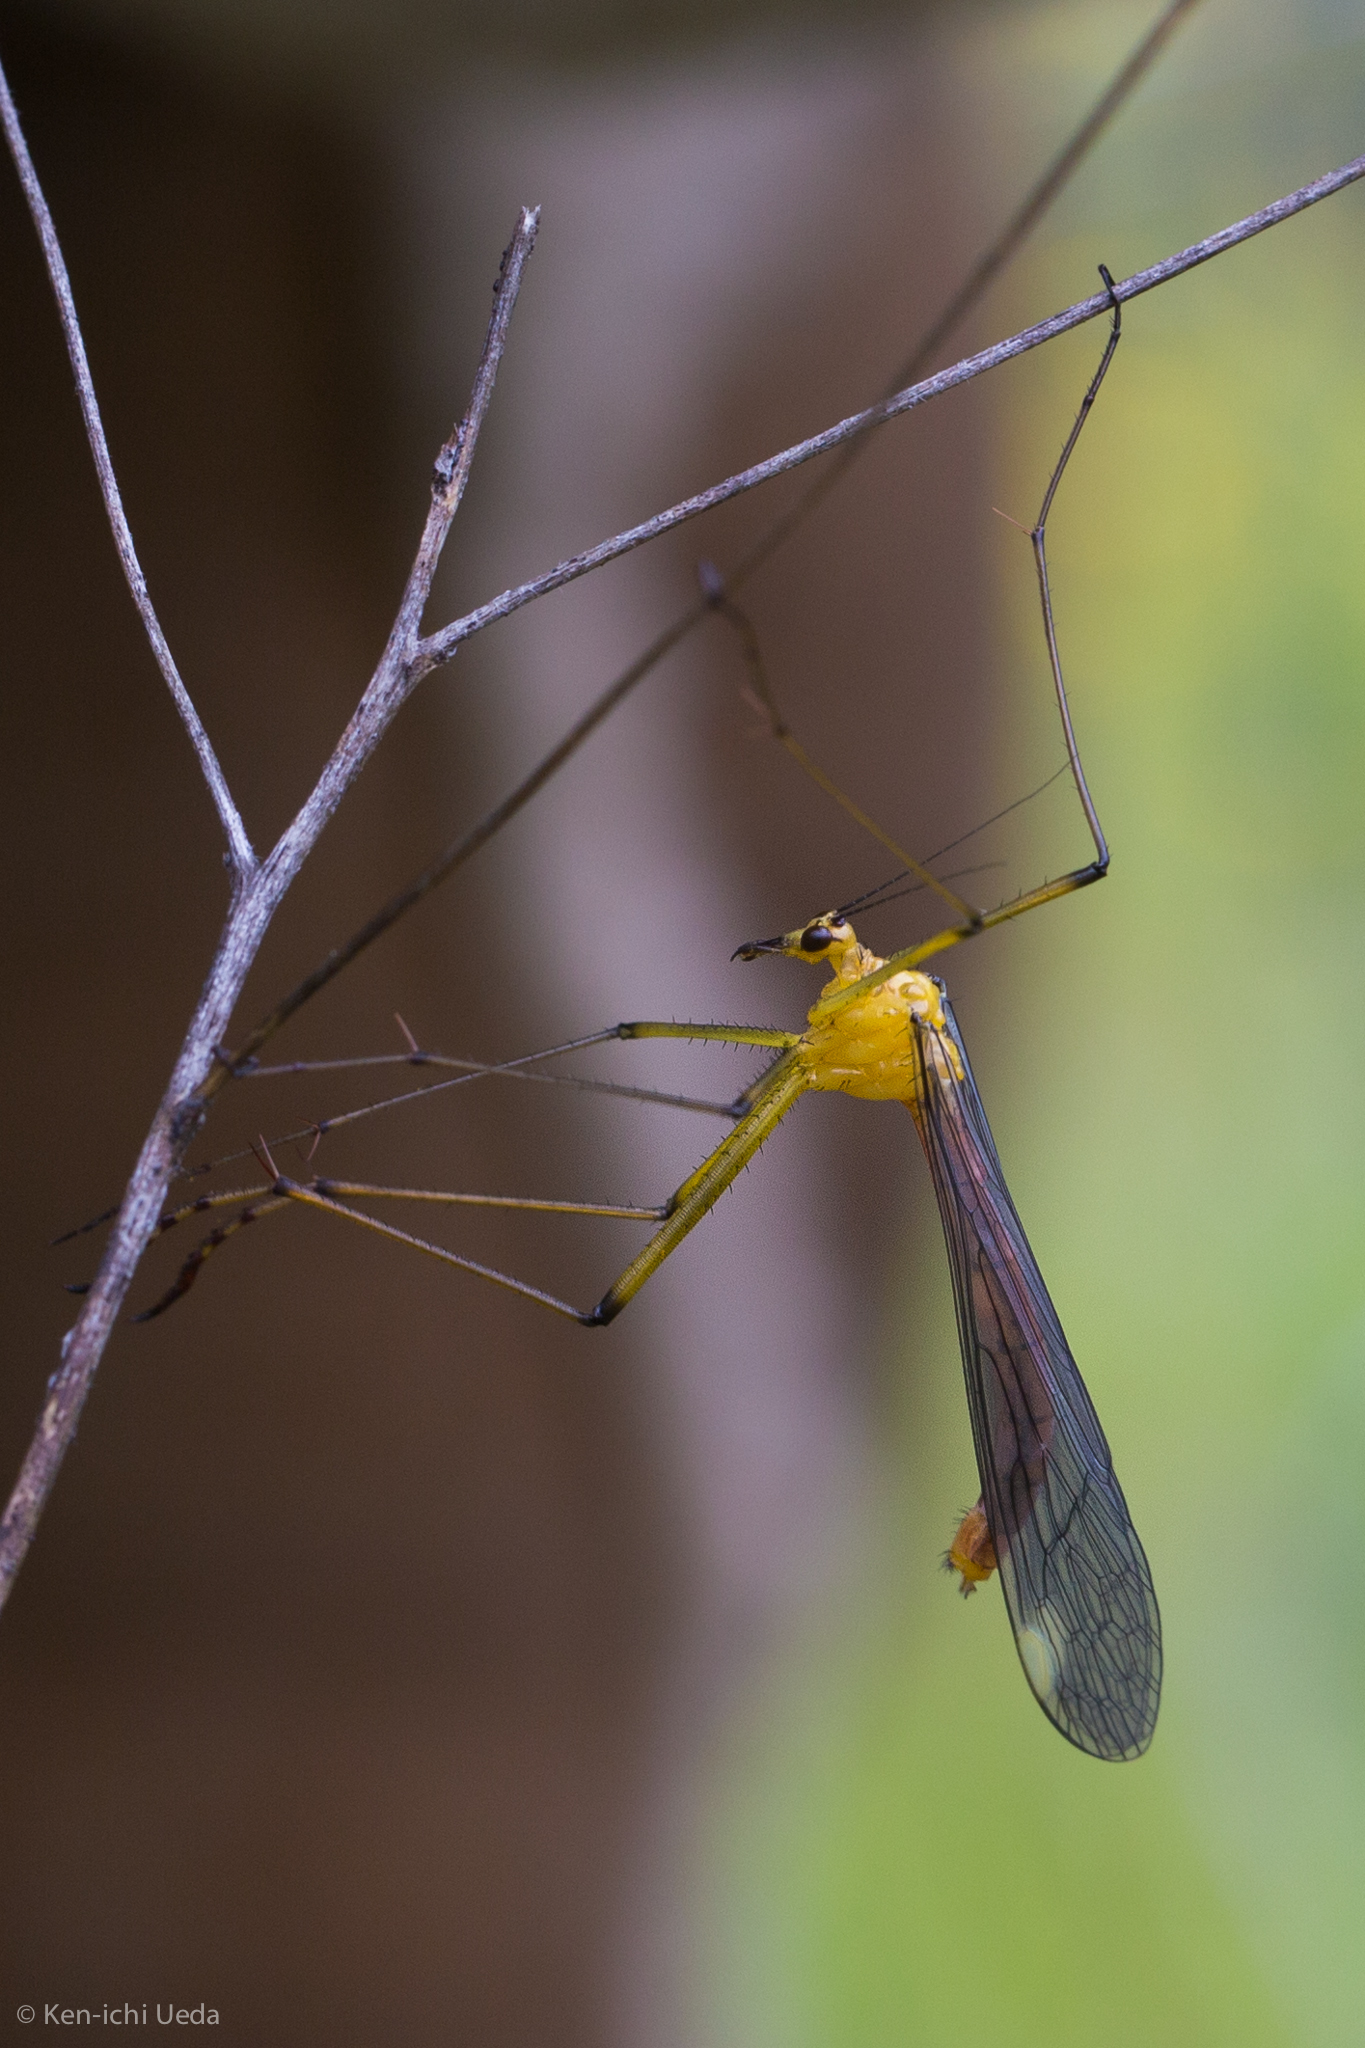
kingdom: Animalia
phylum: Arthropoda
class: Insecta
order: Mecoptera
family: Bittacidae
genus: Bittacus
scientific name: Bittacus chlorostigma
